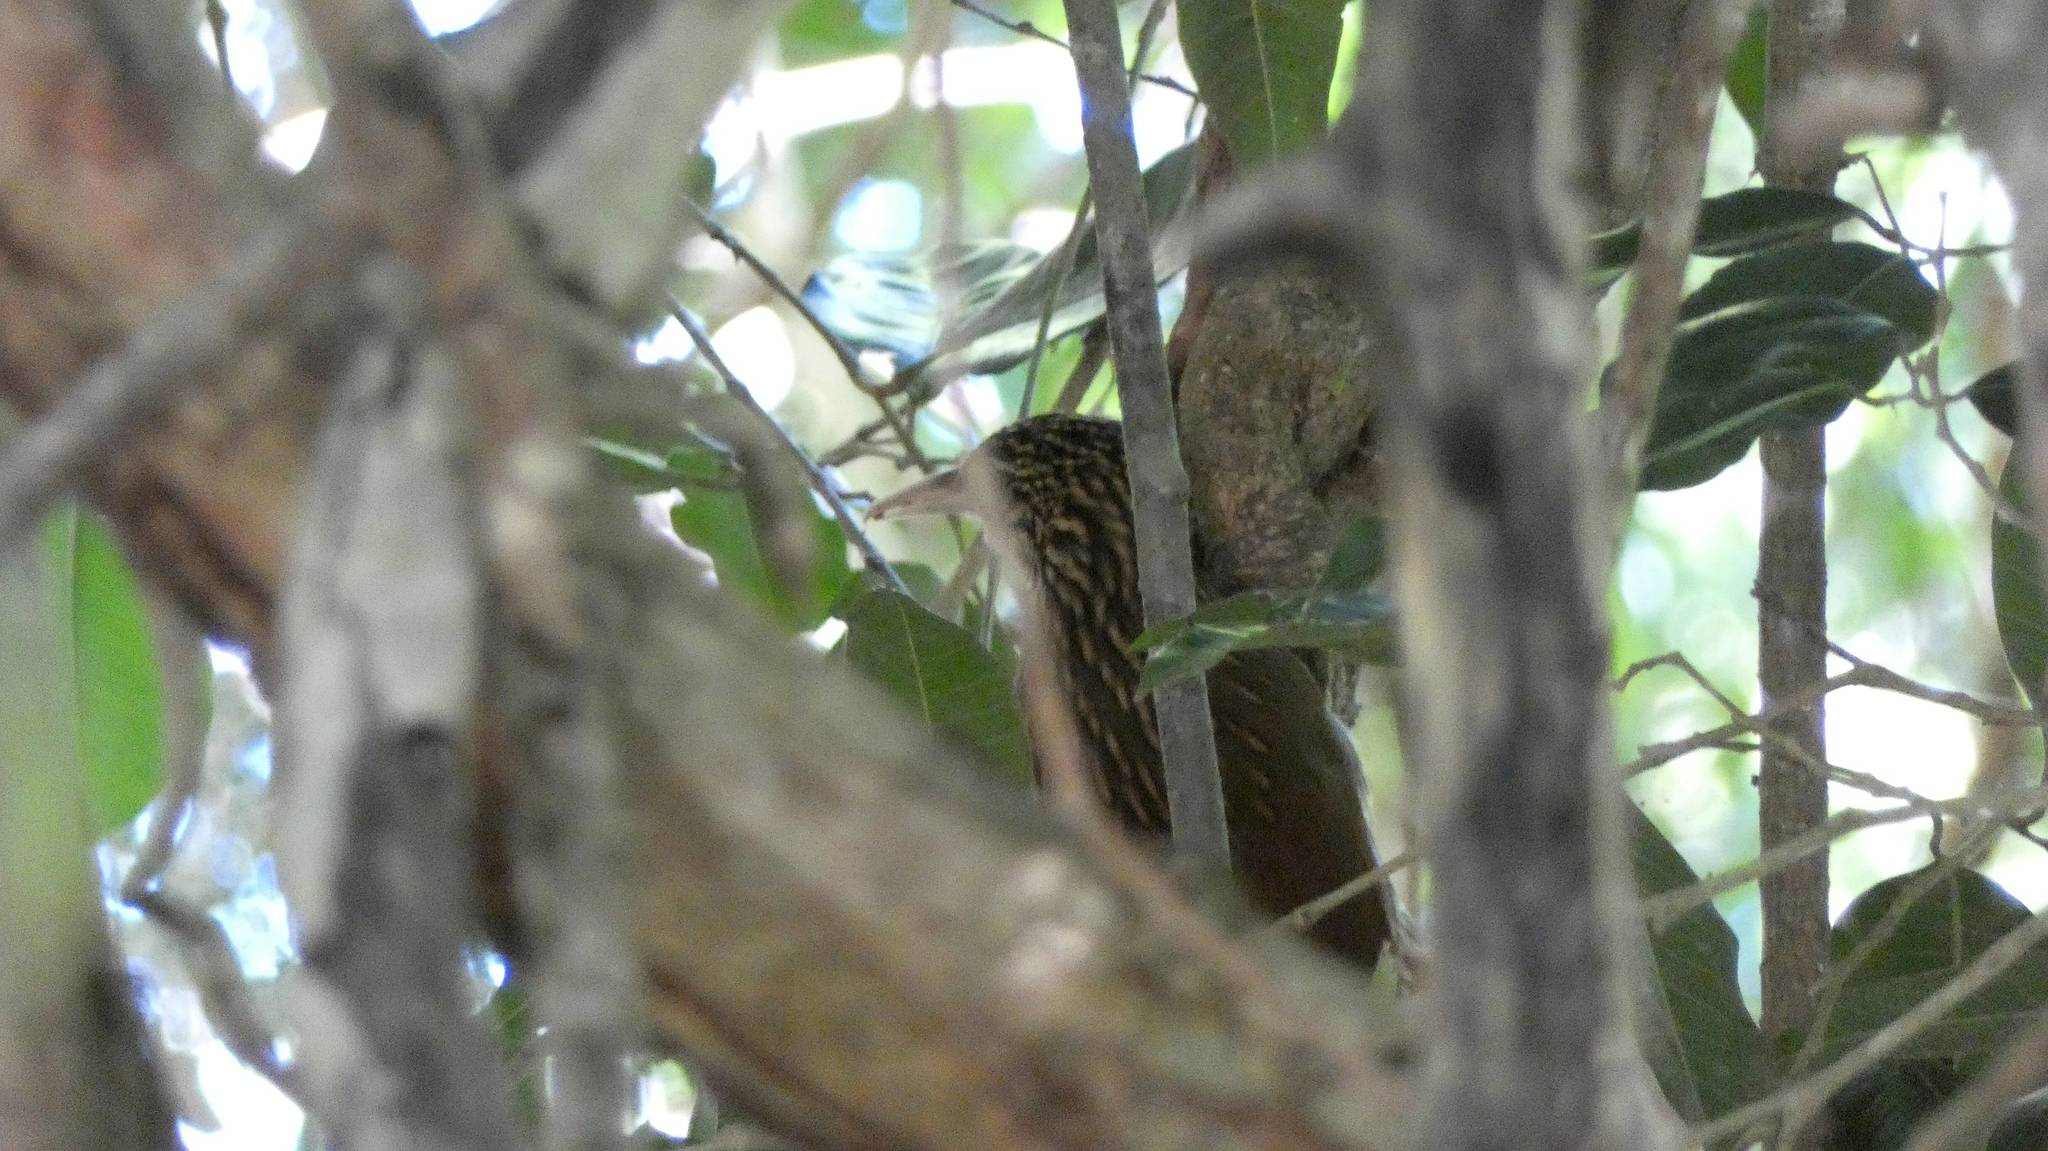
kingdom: Animalia
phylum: Chordata
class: Aves
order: Passeriformes
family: Furnariidae
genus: Xiphorhynchus
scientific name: Xiphorhynchus flavigaster
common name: Ivory-billed woodcreeper
